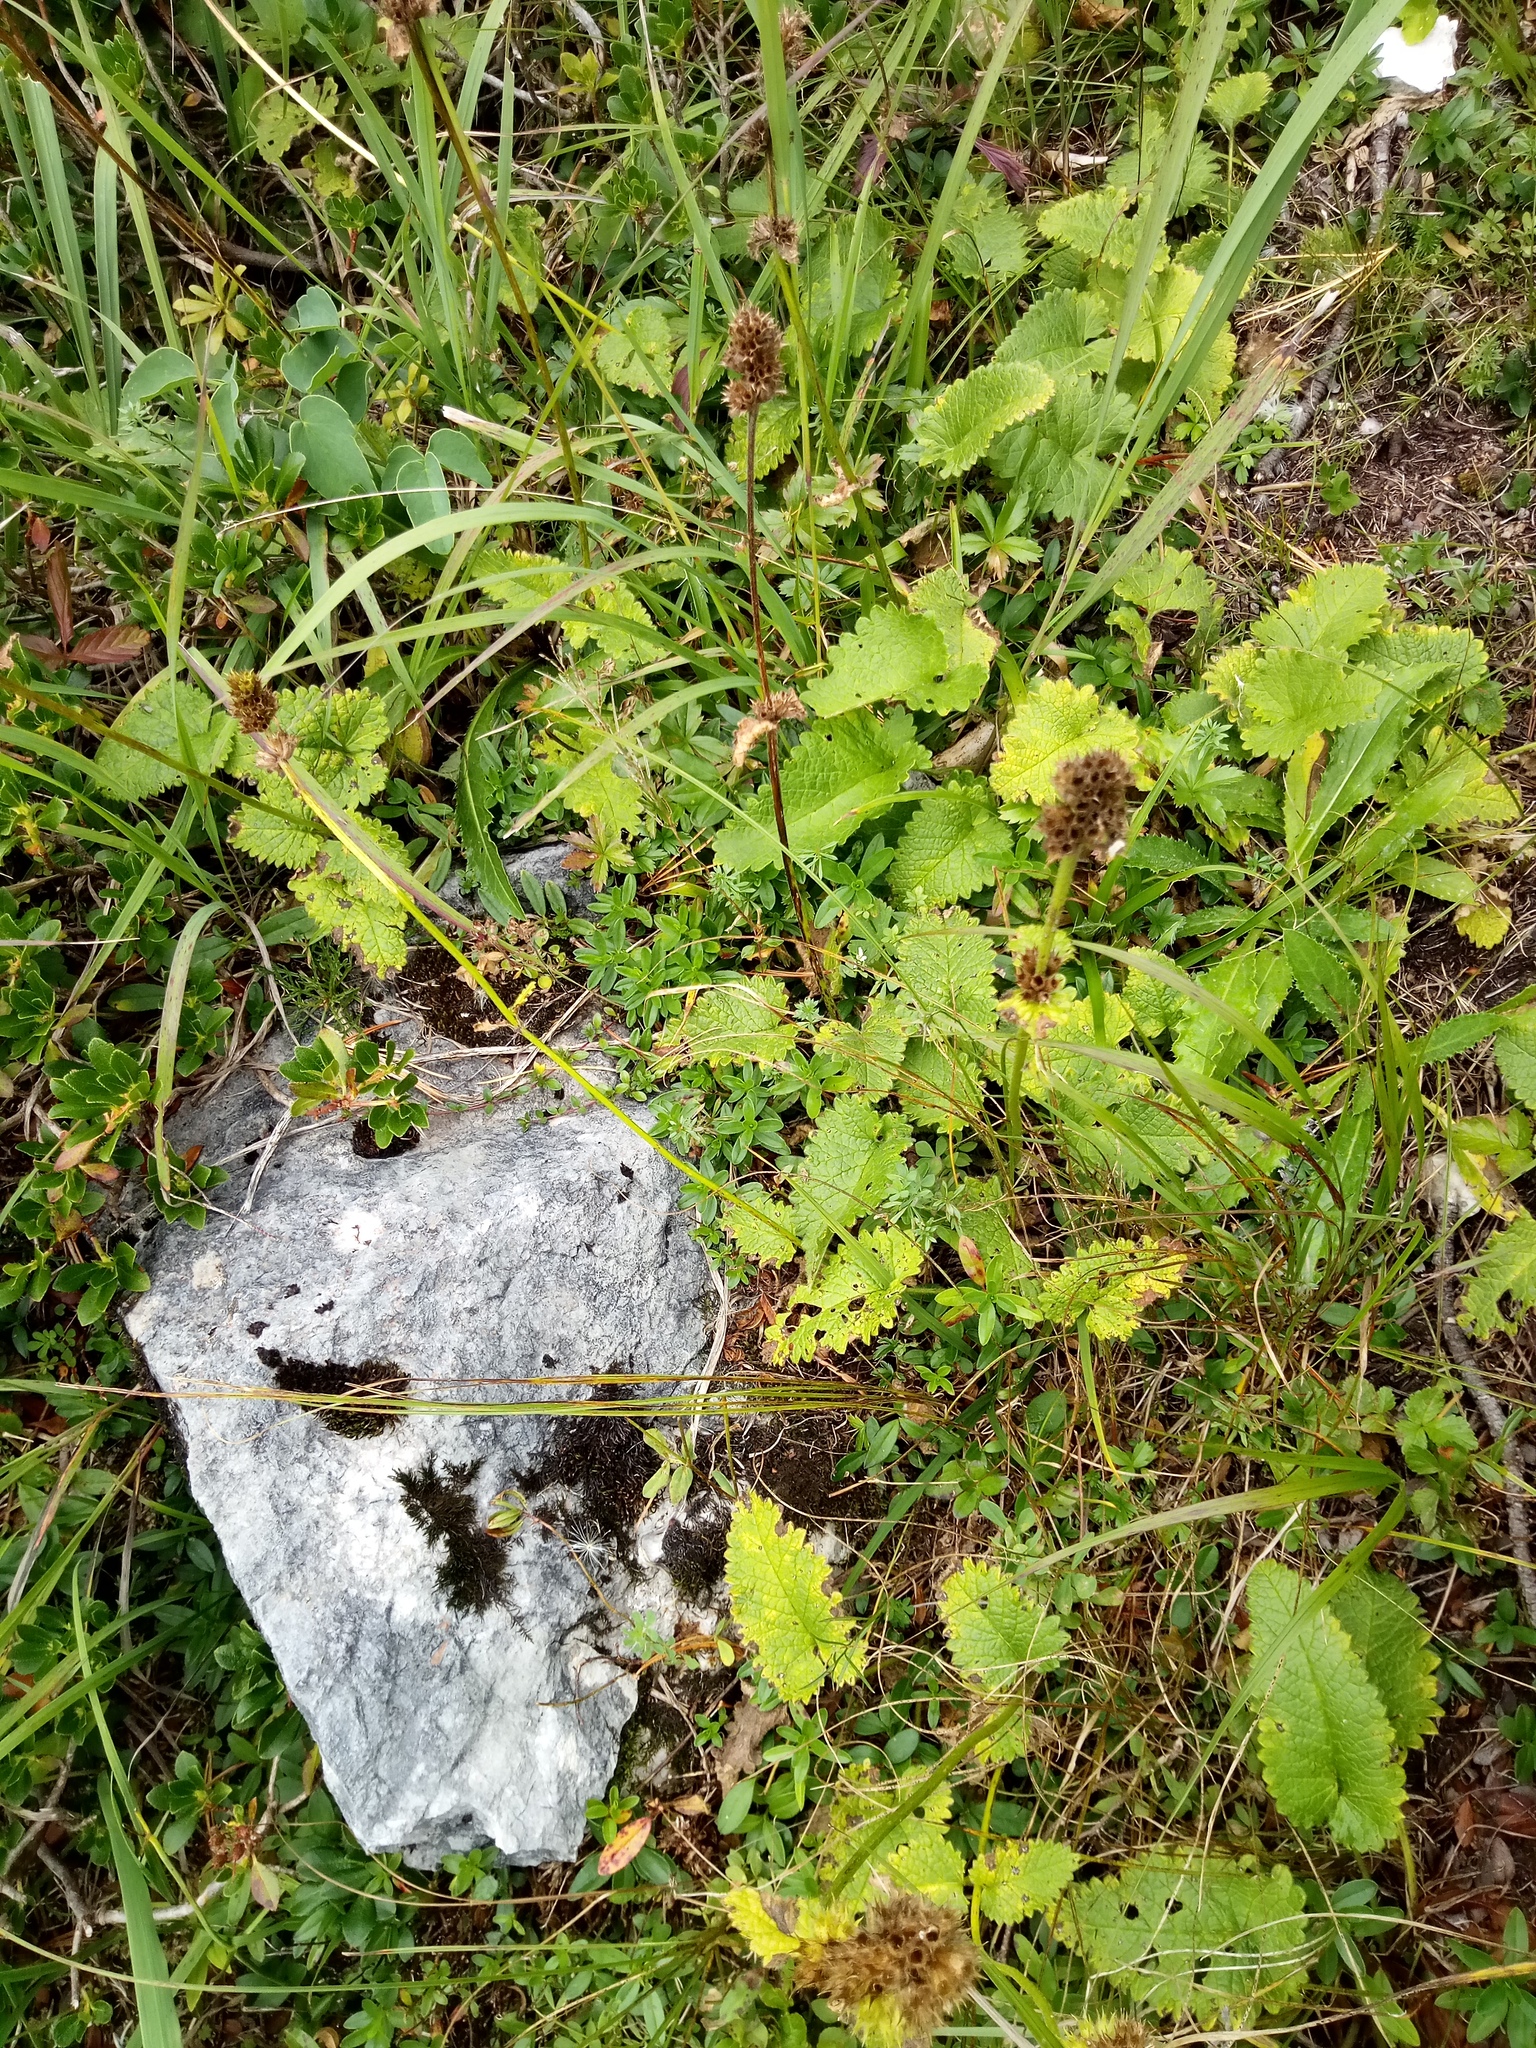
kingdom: Plantae
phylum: Tracheophyta
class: Magnoliopsida
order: Lamiales
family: Lamiaceae
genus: Betonica
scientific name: Betonica alopecuros
